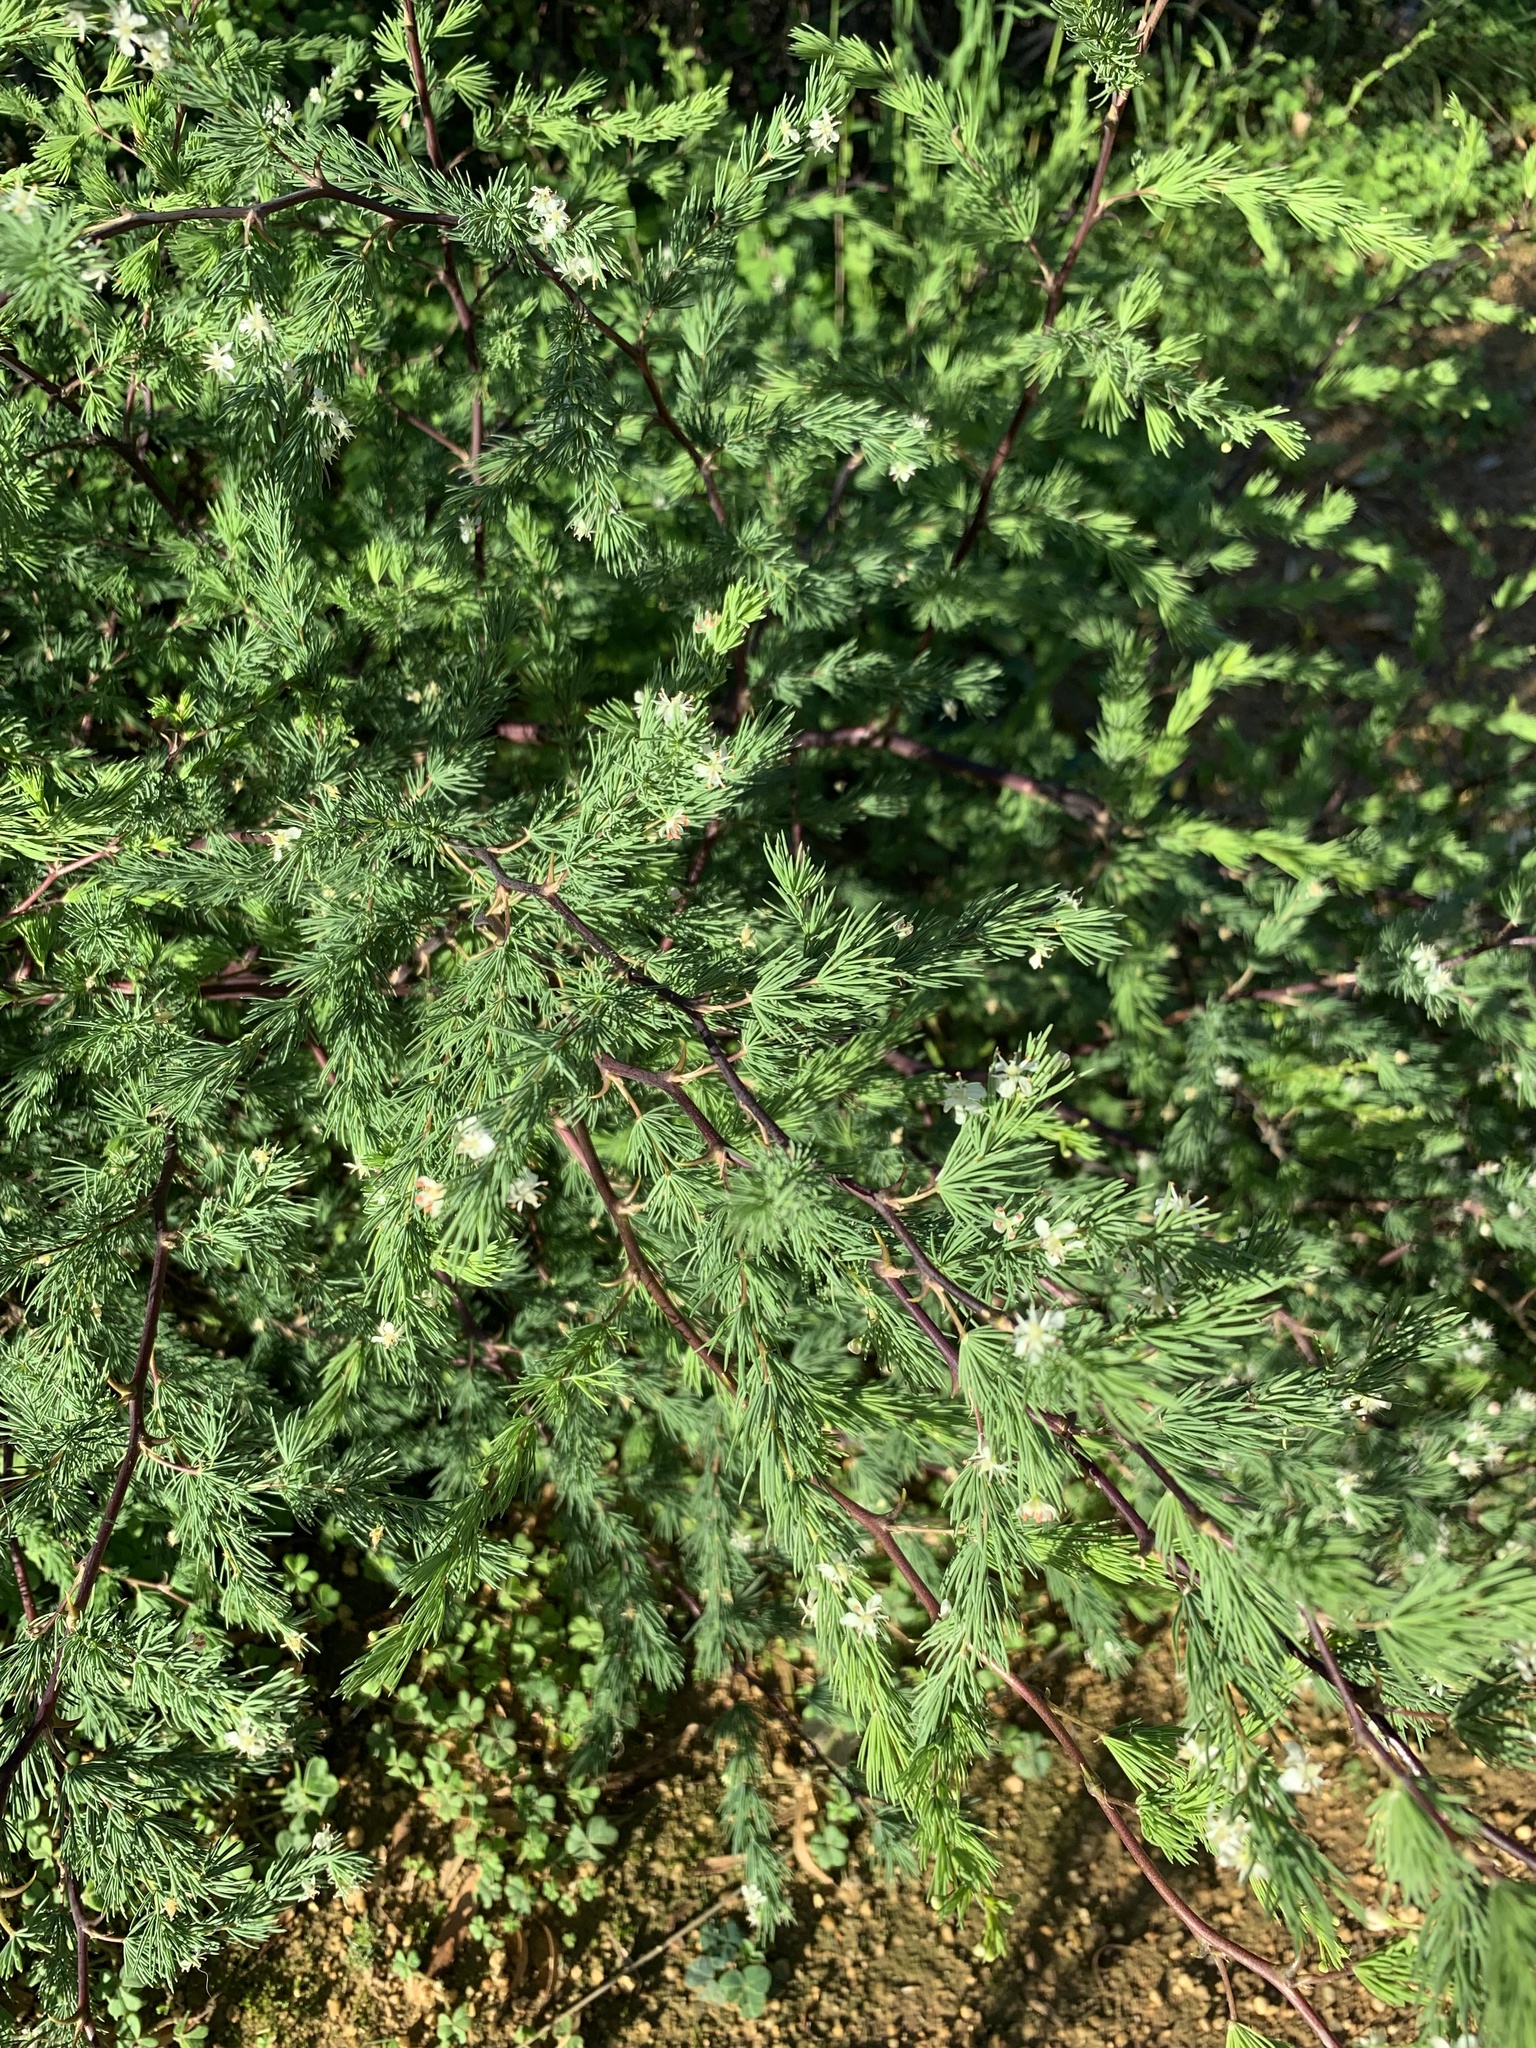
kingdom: Plantae
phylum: Tracheophyta
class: Liliopsida
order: Asparagales
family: Asparagaceae
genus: Asparagus
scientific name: Asparagus rubicundus
